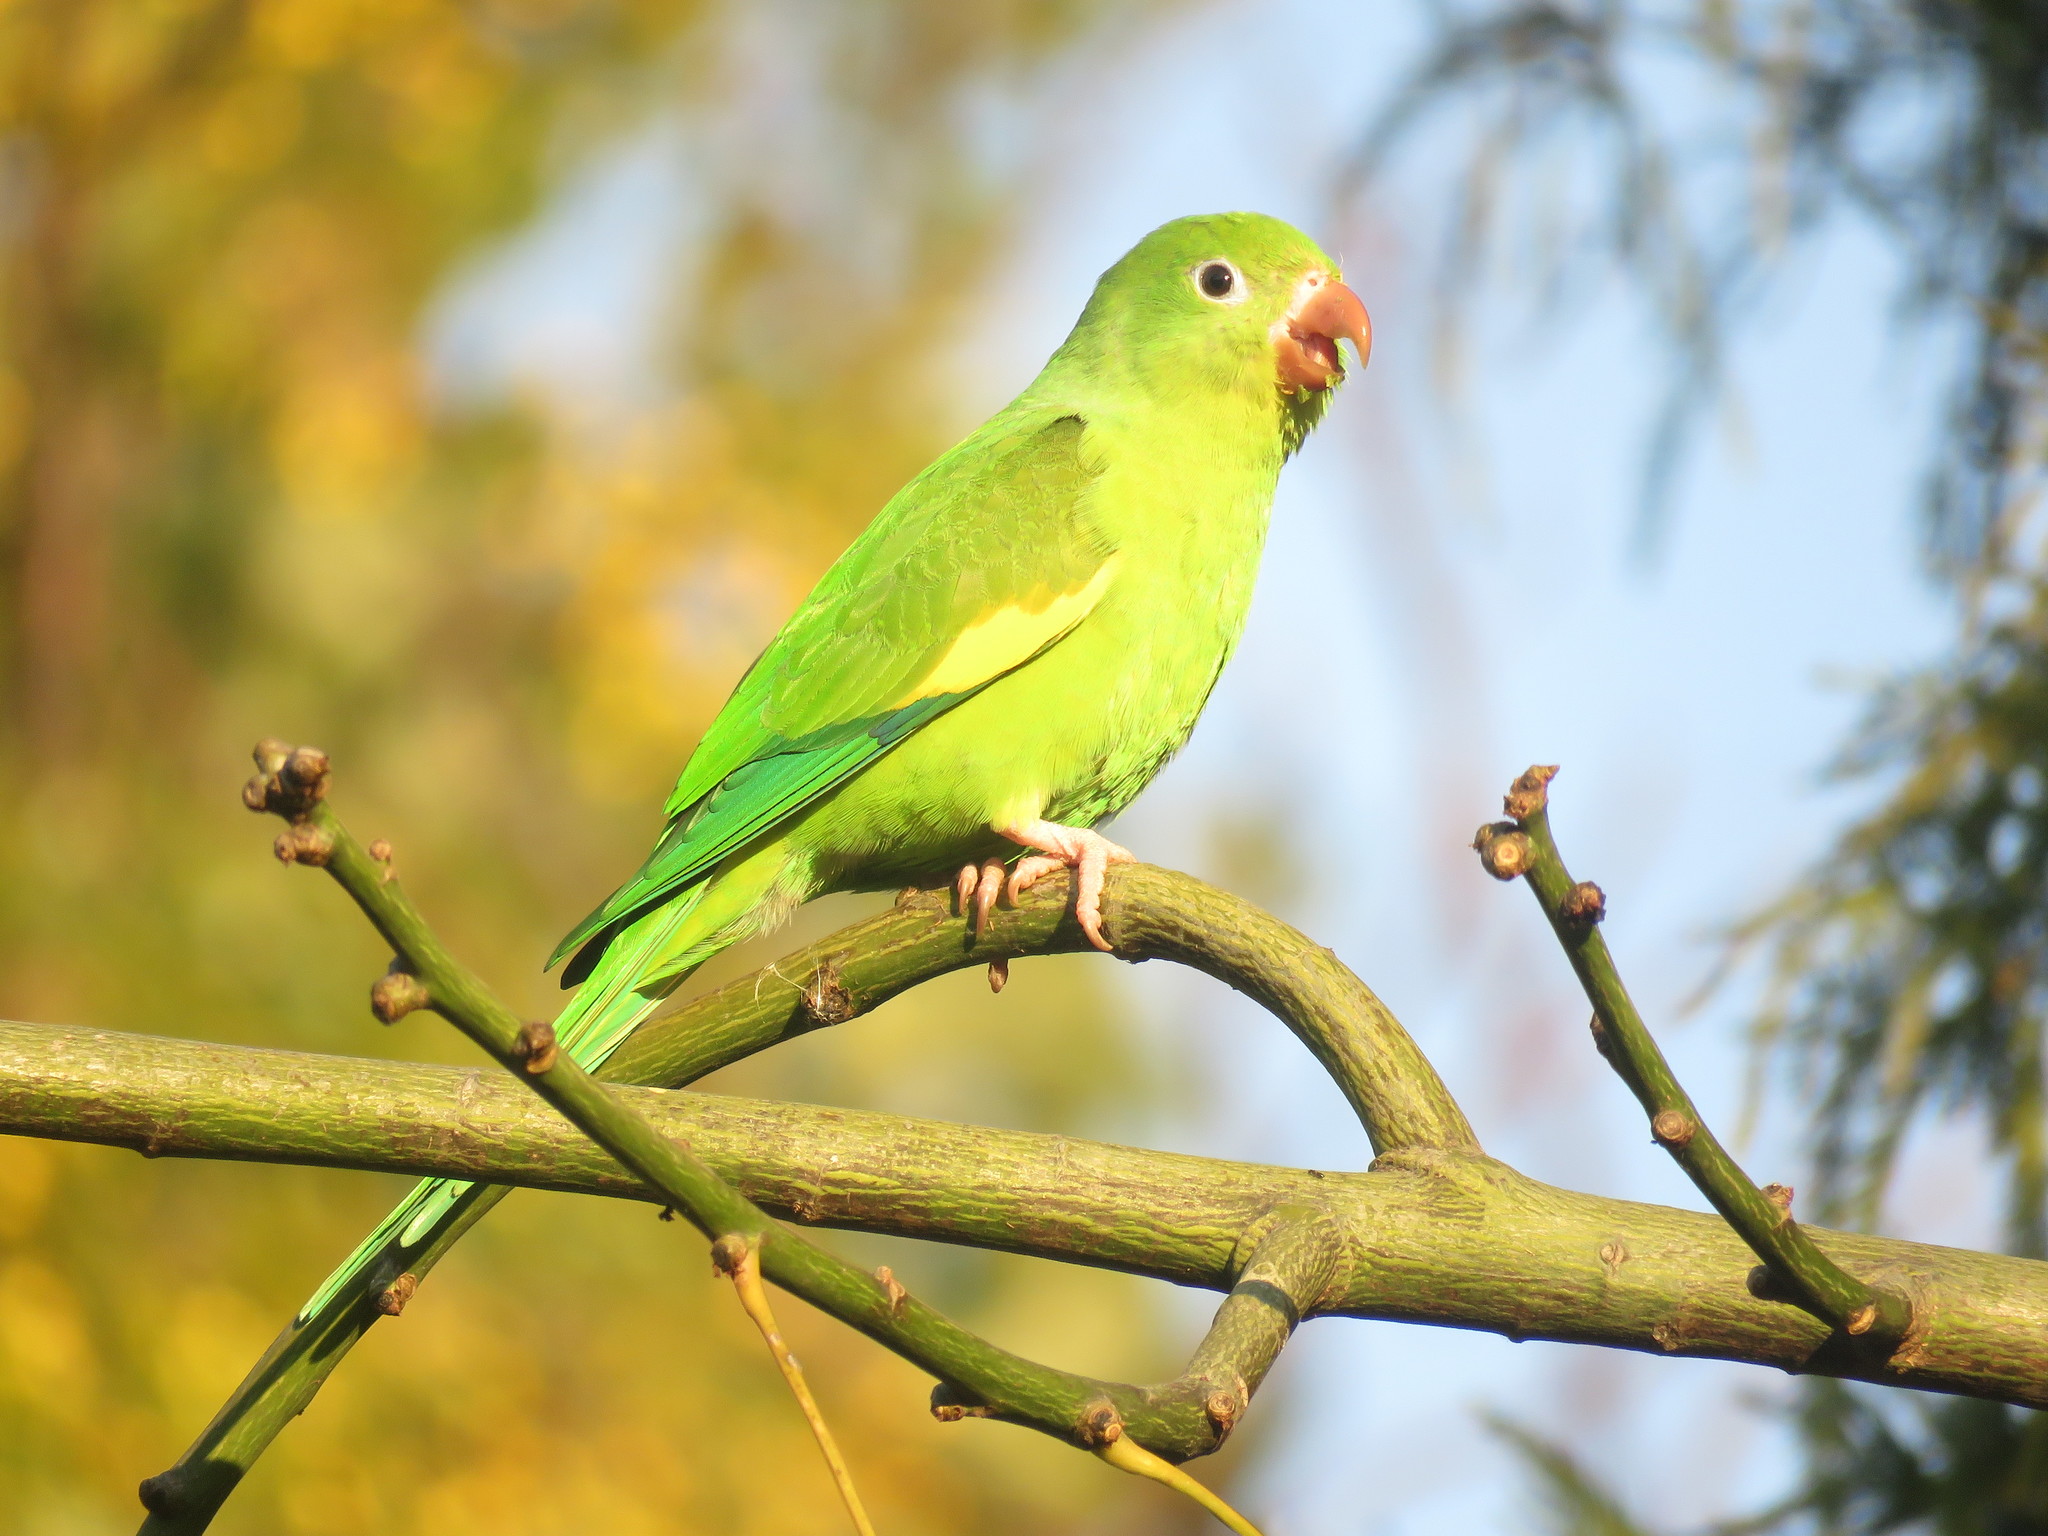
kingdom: Animalia
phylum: Chordata
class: Aves
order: Psittaciformes
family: Psittacidae
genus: Brotogeris
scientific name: Brotogeris chiriri
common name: Yellow-chevroned parakeet
